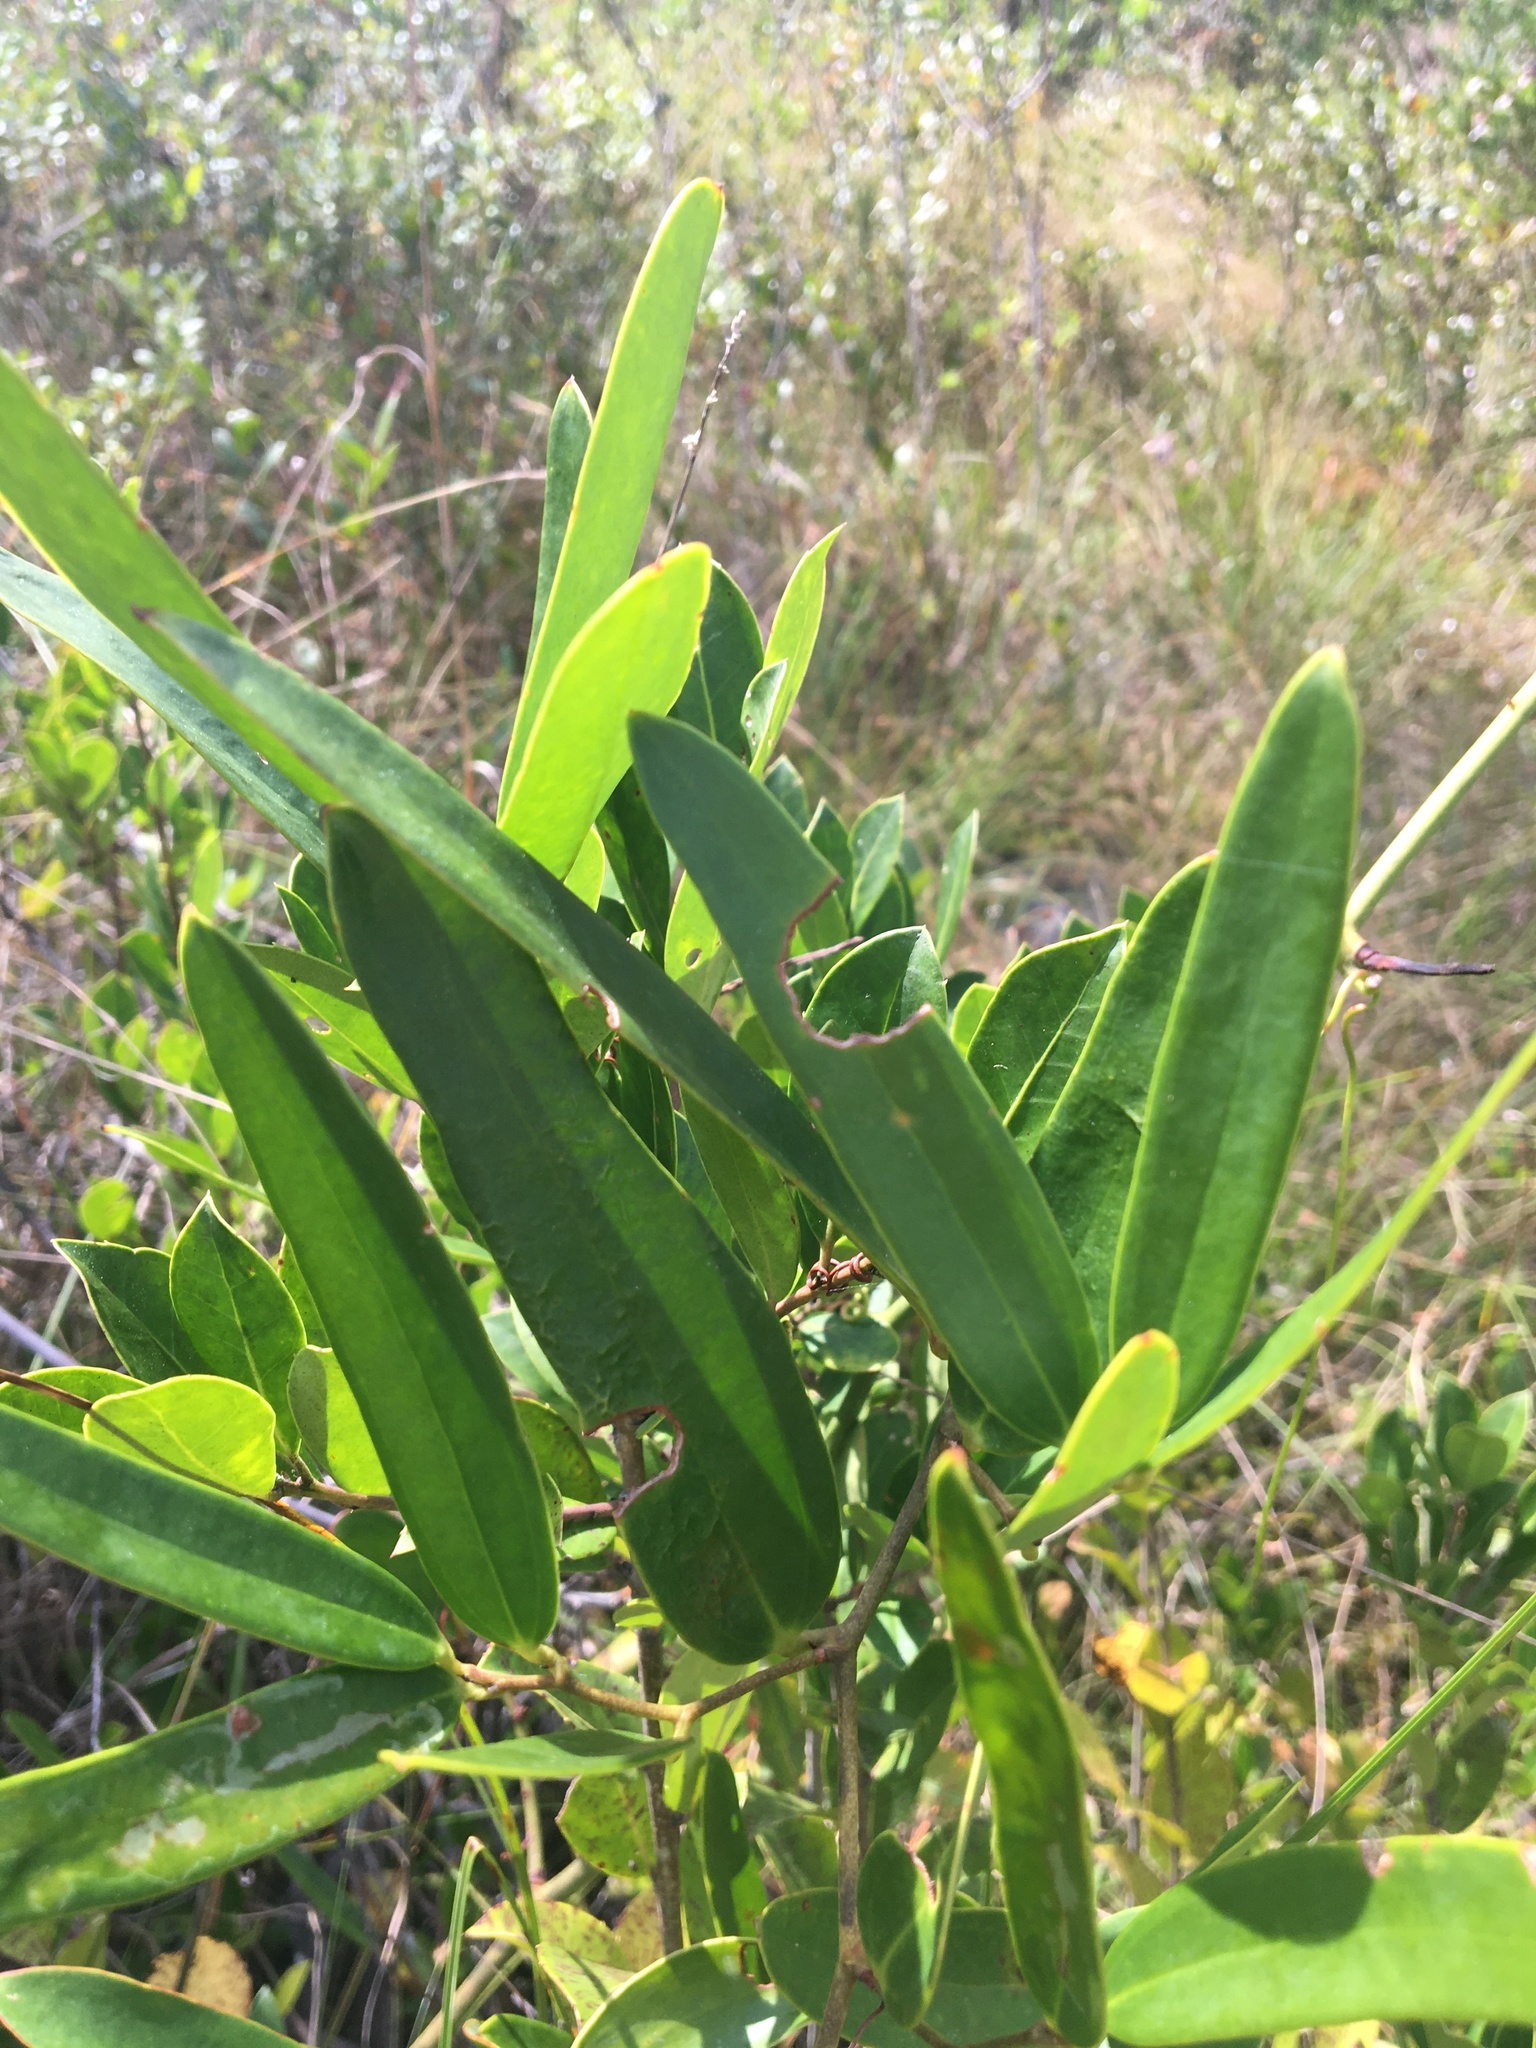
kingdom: Plantae
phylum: Tracheophyta
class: Liliopsida
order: Liliales
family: Smilacaceae
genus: Smilax
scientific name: Smilax laurifolia
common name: Bamboovine
